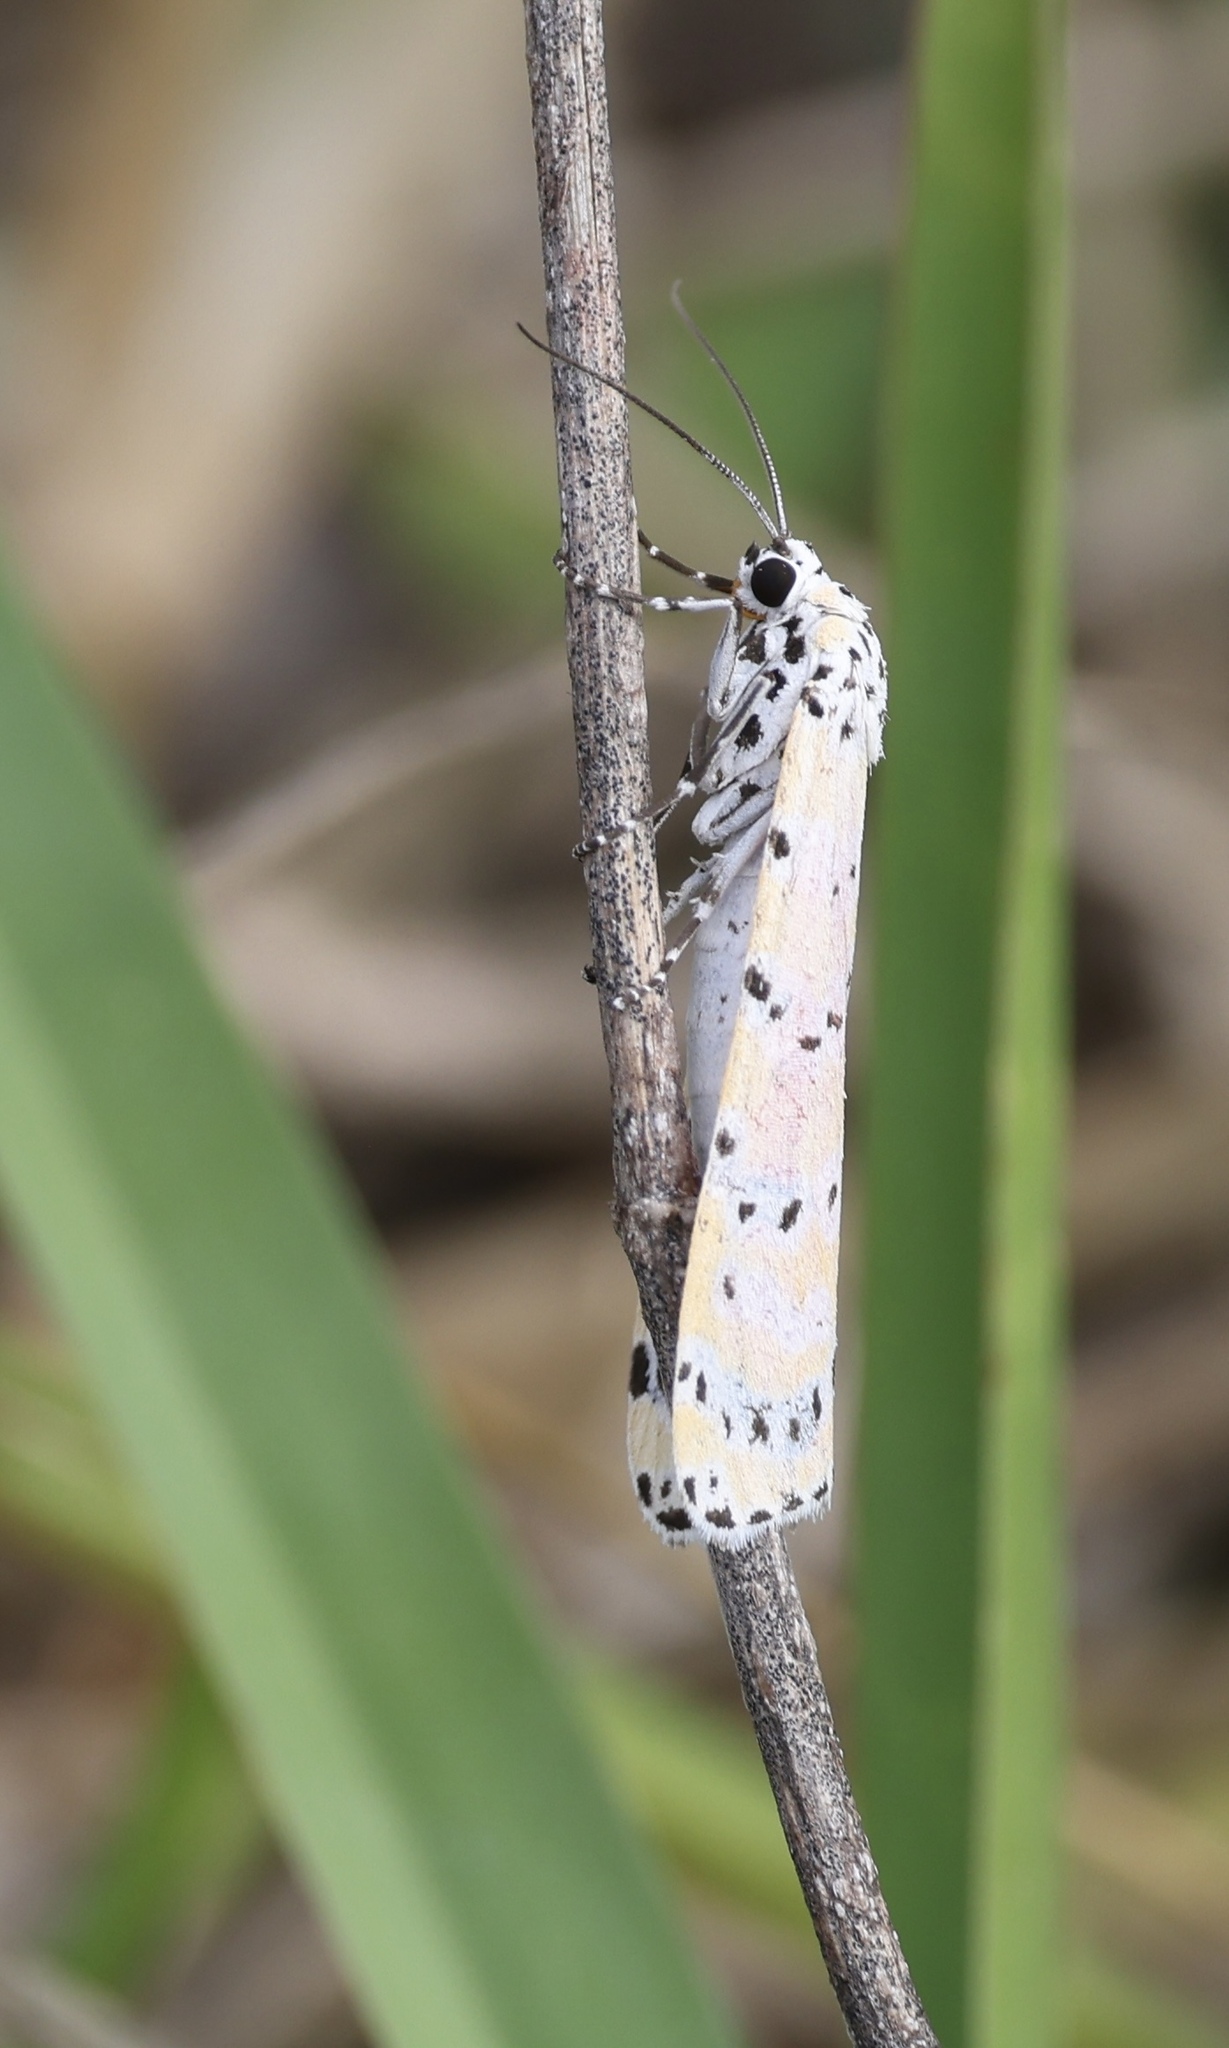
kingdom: Animalia
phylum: Arthropoda
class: Insecta
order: Lepidoptera
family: Erebidae
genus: Utetheisa
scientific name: Utetheisa ornatrix
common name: Beautiful utetheisa
